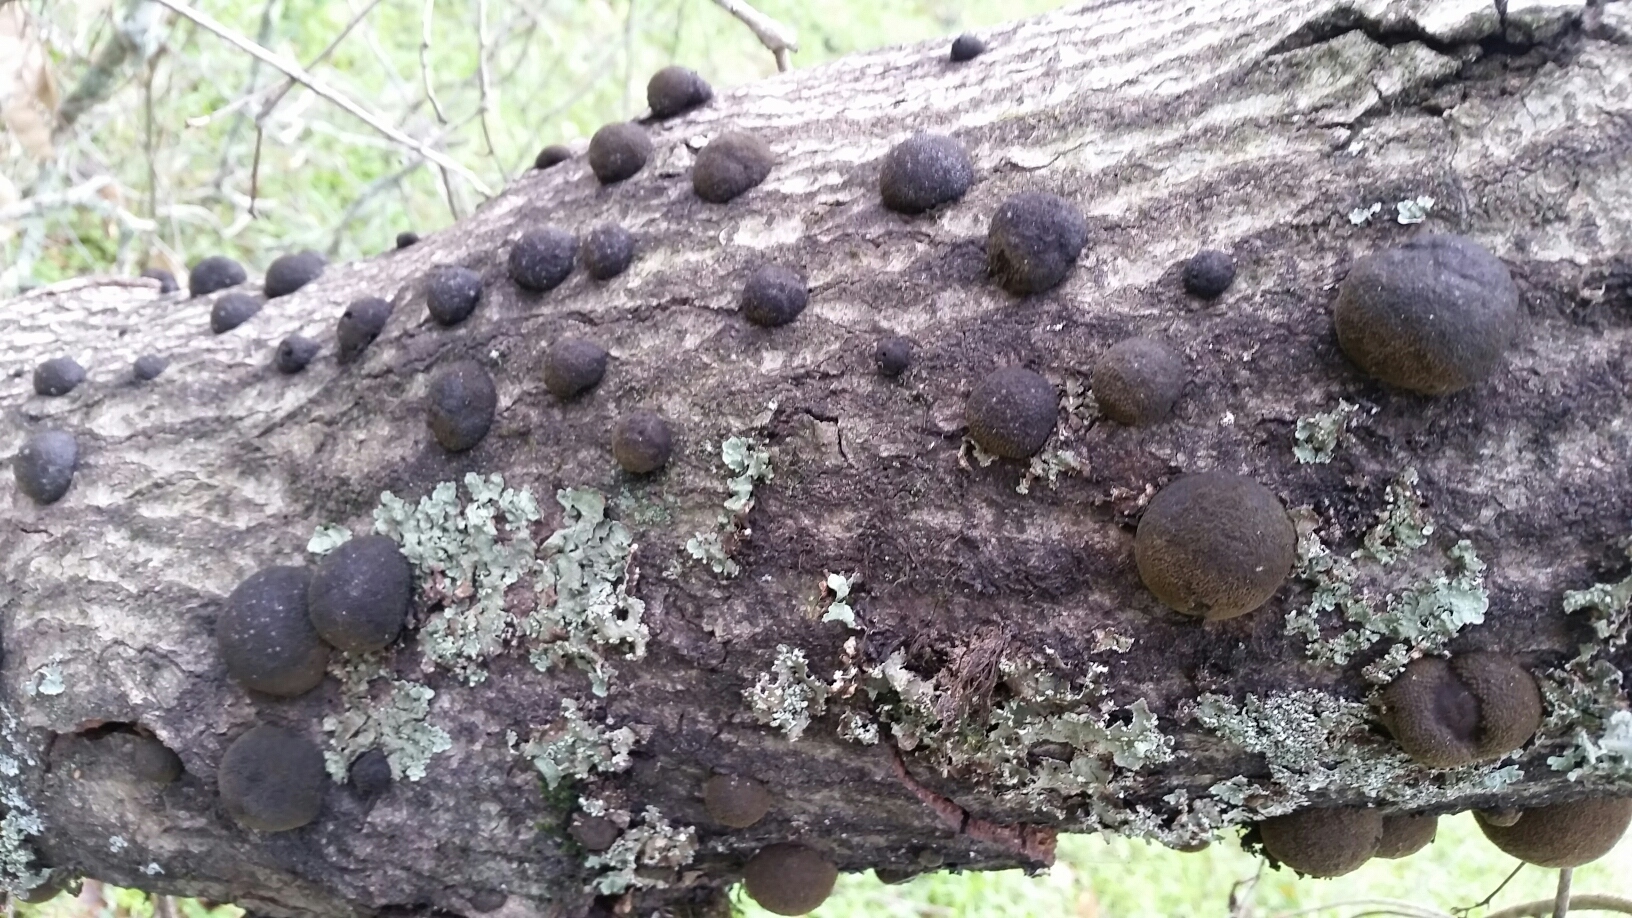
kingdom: Fungi
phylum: Ascomycota
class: Sordariomycetes
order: Xylariales
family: Hypoxylaceae
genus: Annulohypoxylon
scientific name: Annulohypoxylon thouarsianum
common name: Cramp balls
